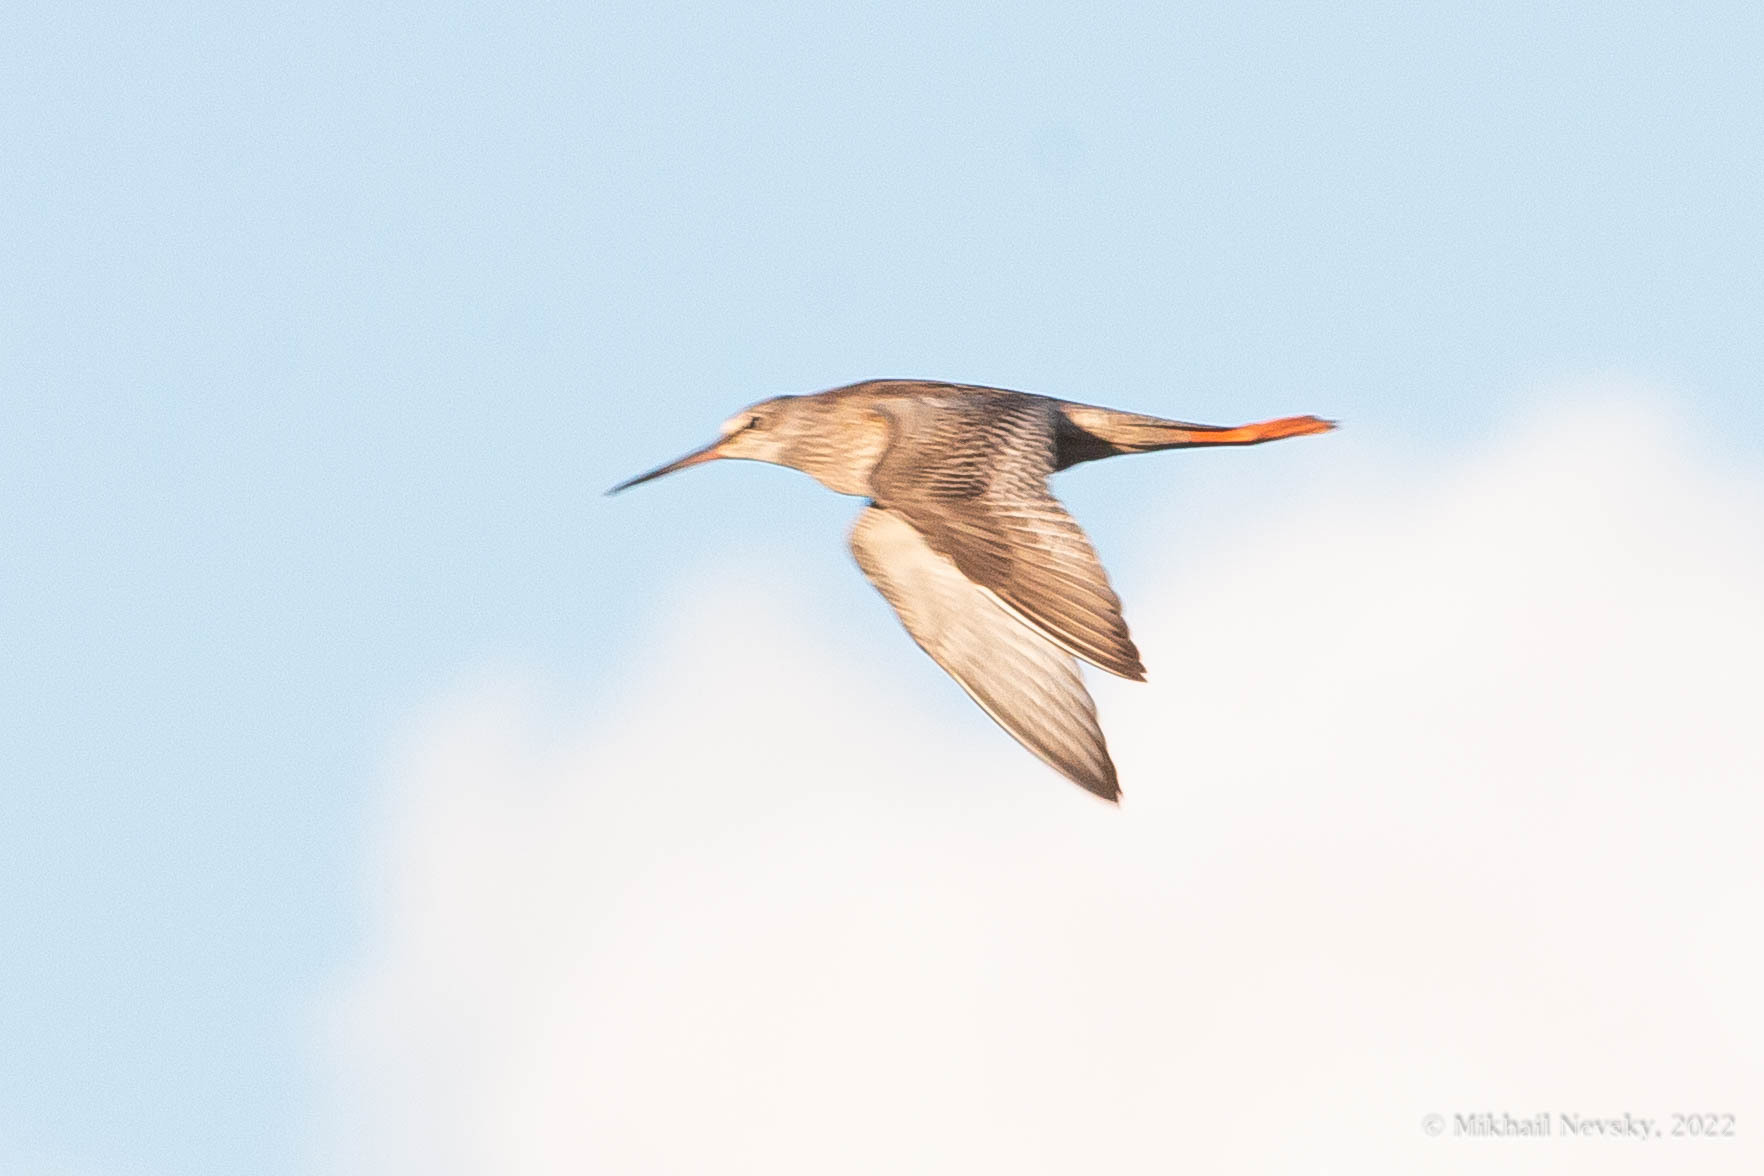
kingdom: Animalia
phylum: Chordata
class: Aves
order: Charadriiformes
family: Scolopacidae
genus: Tringa
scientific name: Tringa erythropus
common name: Spotted redshank
